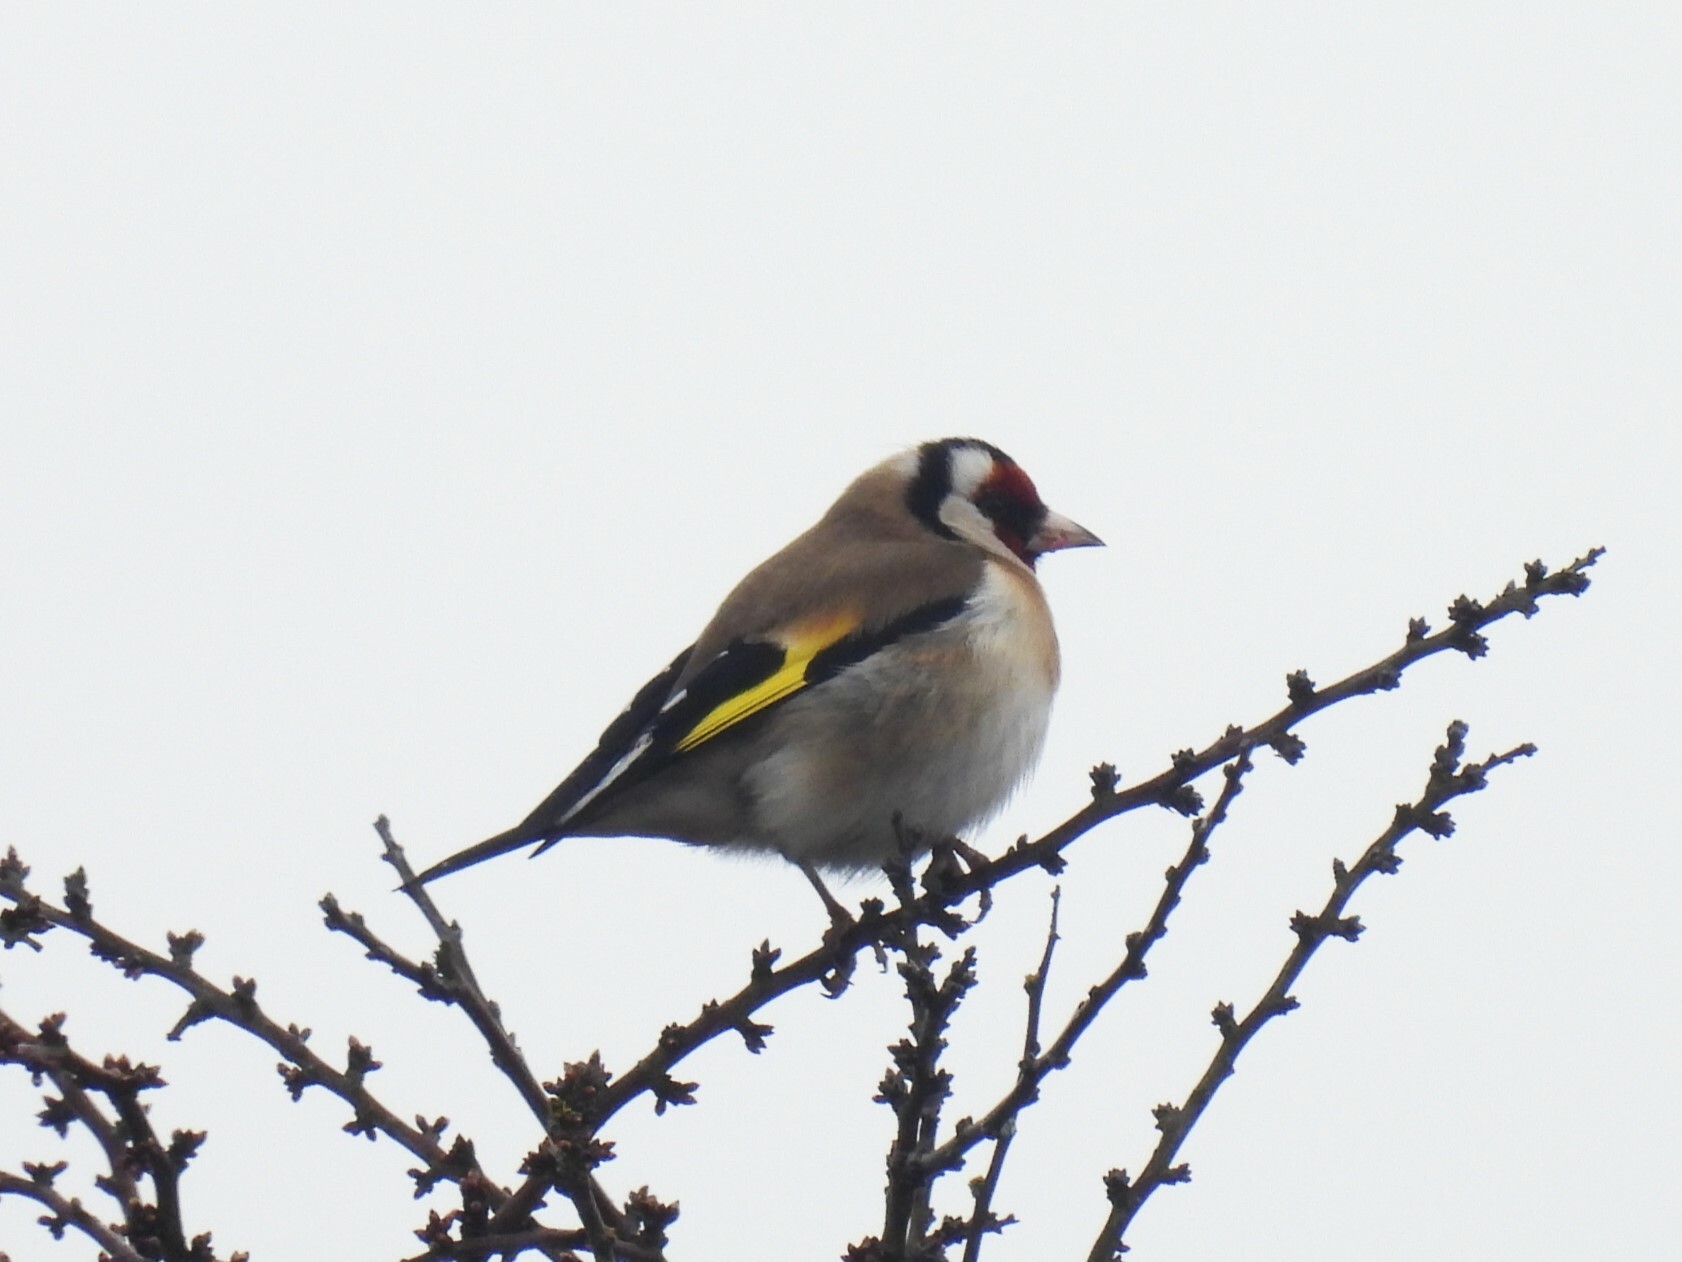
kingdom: Animalia
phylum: Chordata
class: Aves
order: Passeriformes
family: Fringillidae
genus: Carduelis
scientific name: Carduelis carduelis
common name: European goldfinch
